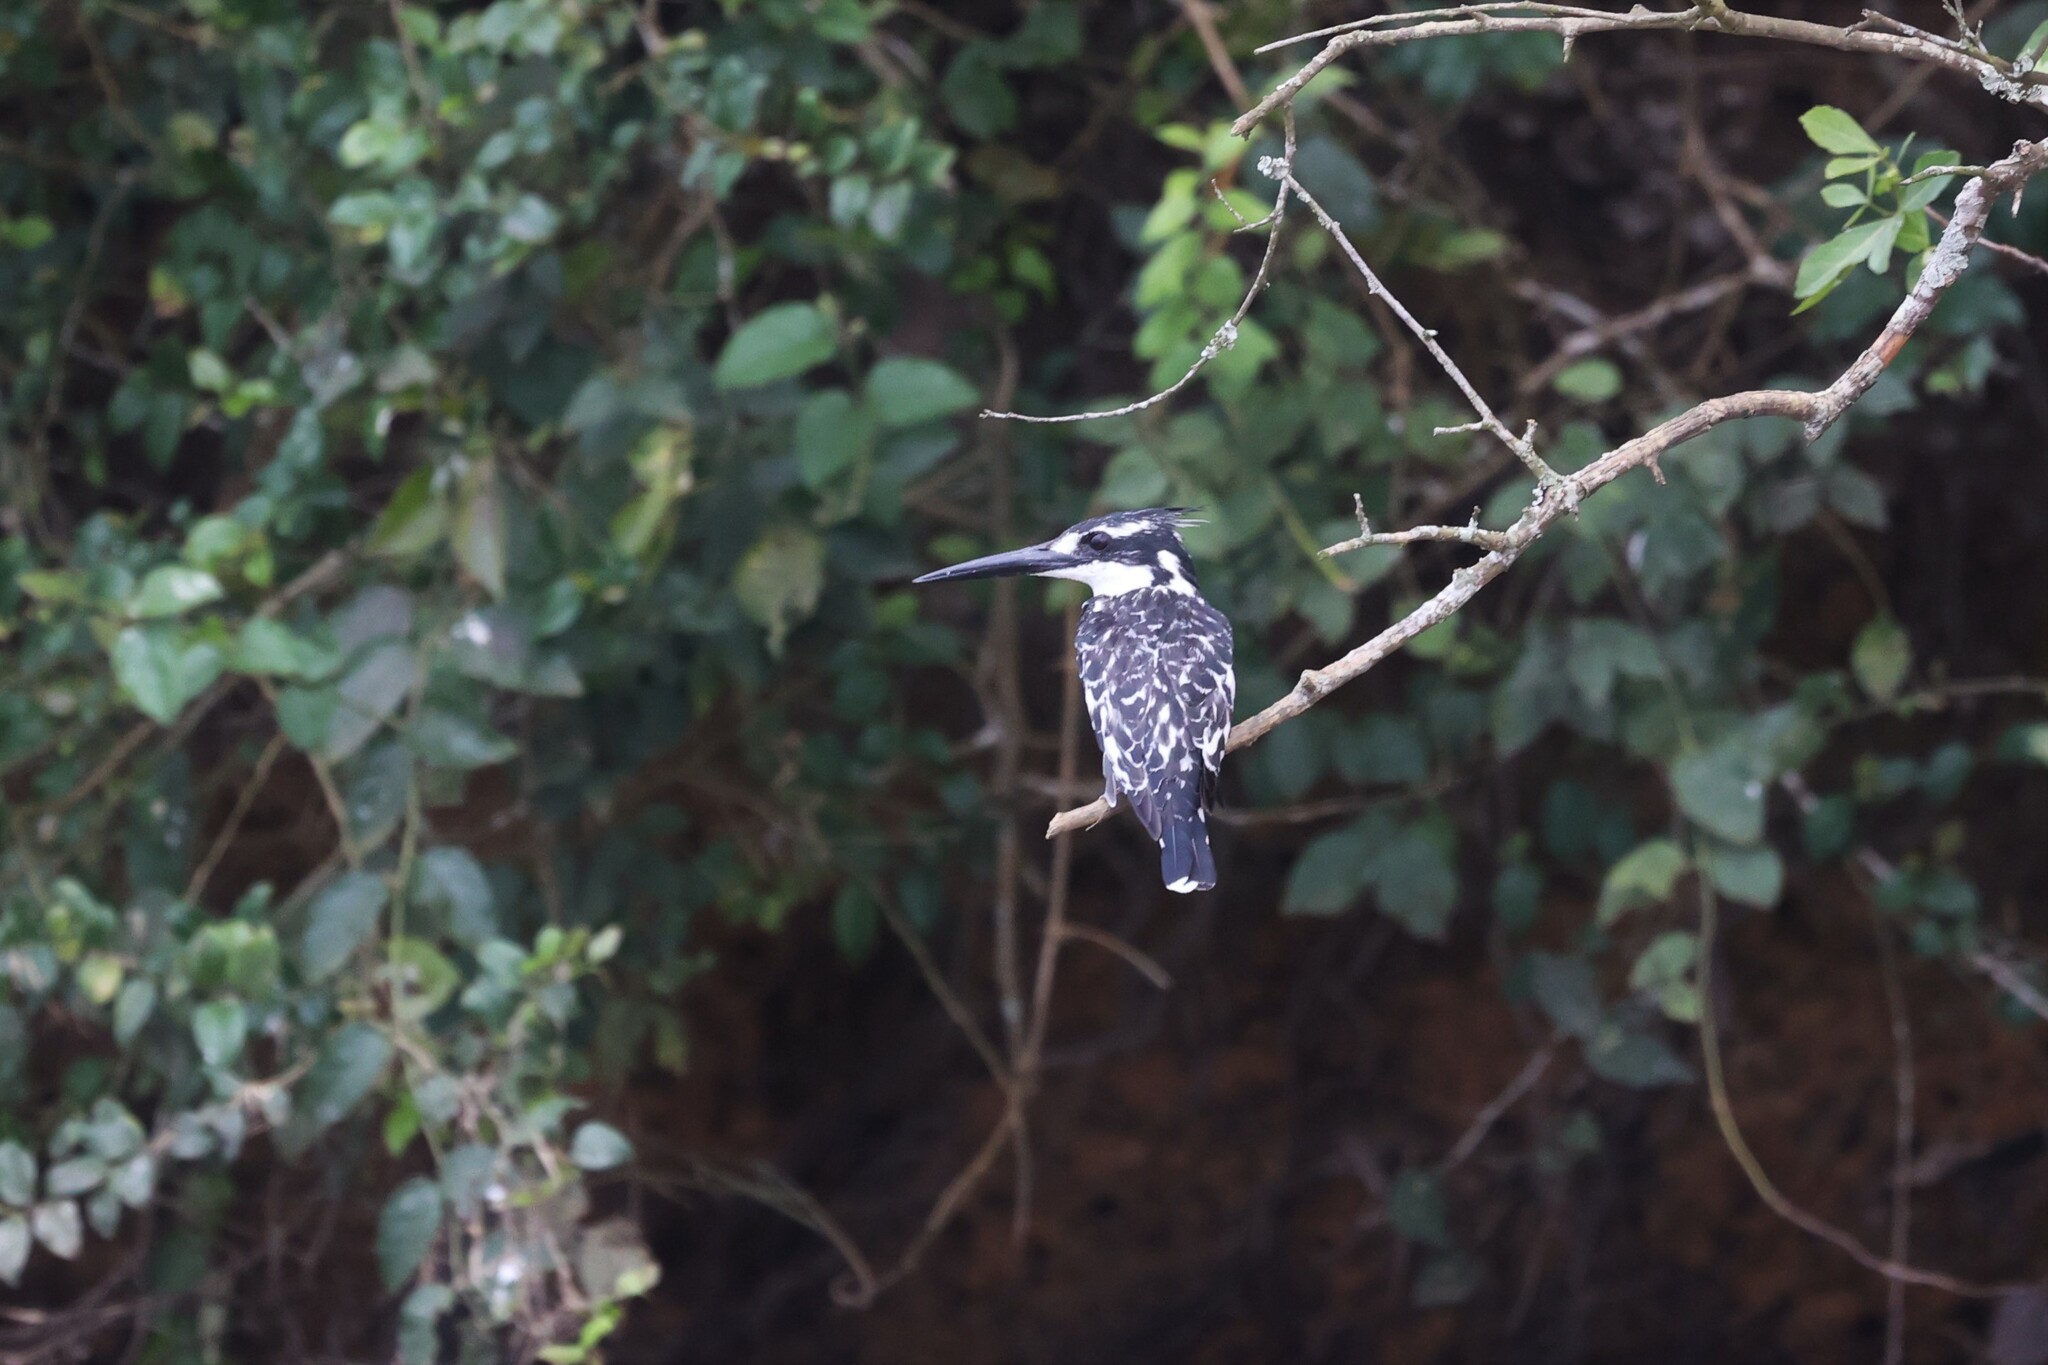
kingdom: Animalia
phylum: Chordata
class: Aves
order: Coraciiformes
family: Alcedinidae
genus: Ceryle
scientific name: Ceryle rudis
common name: Pied kingfisher
